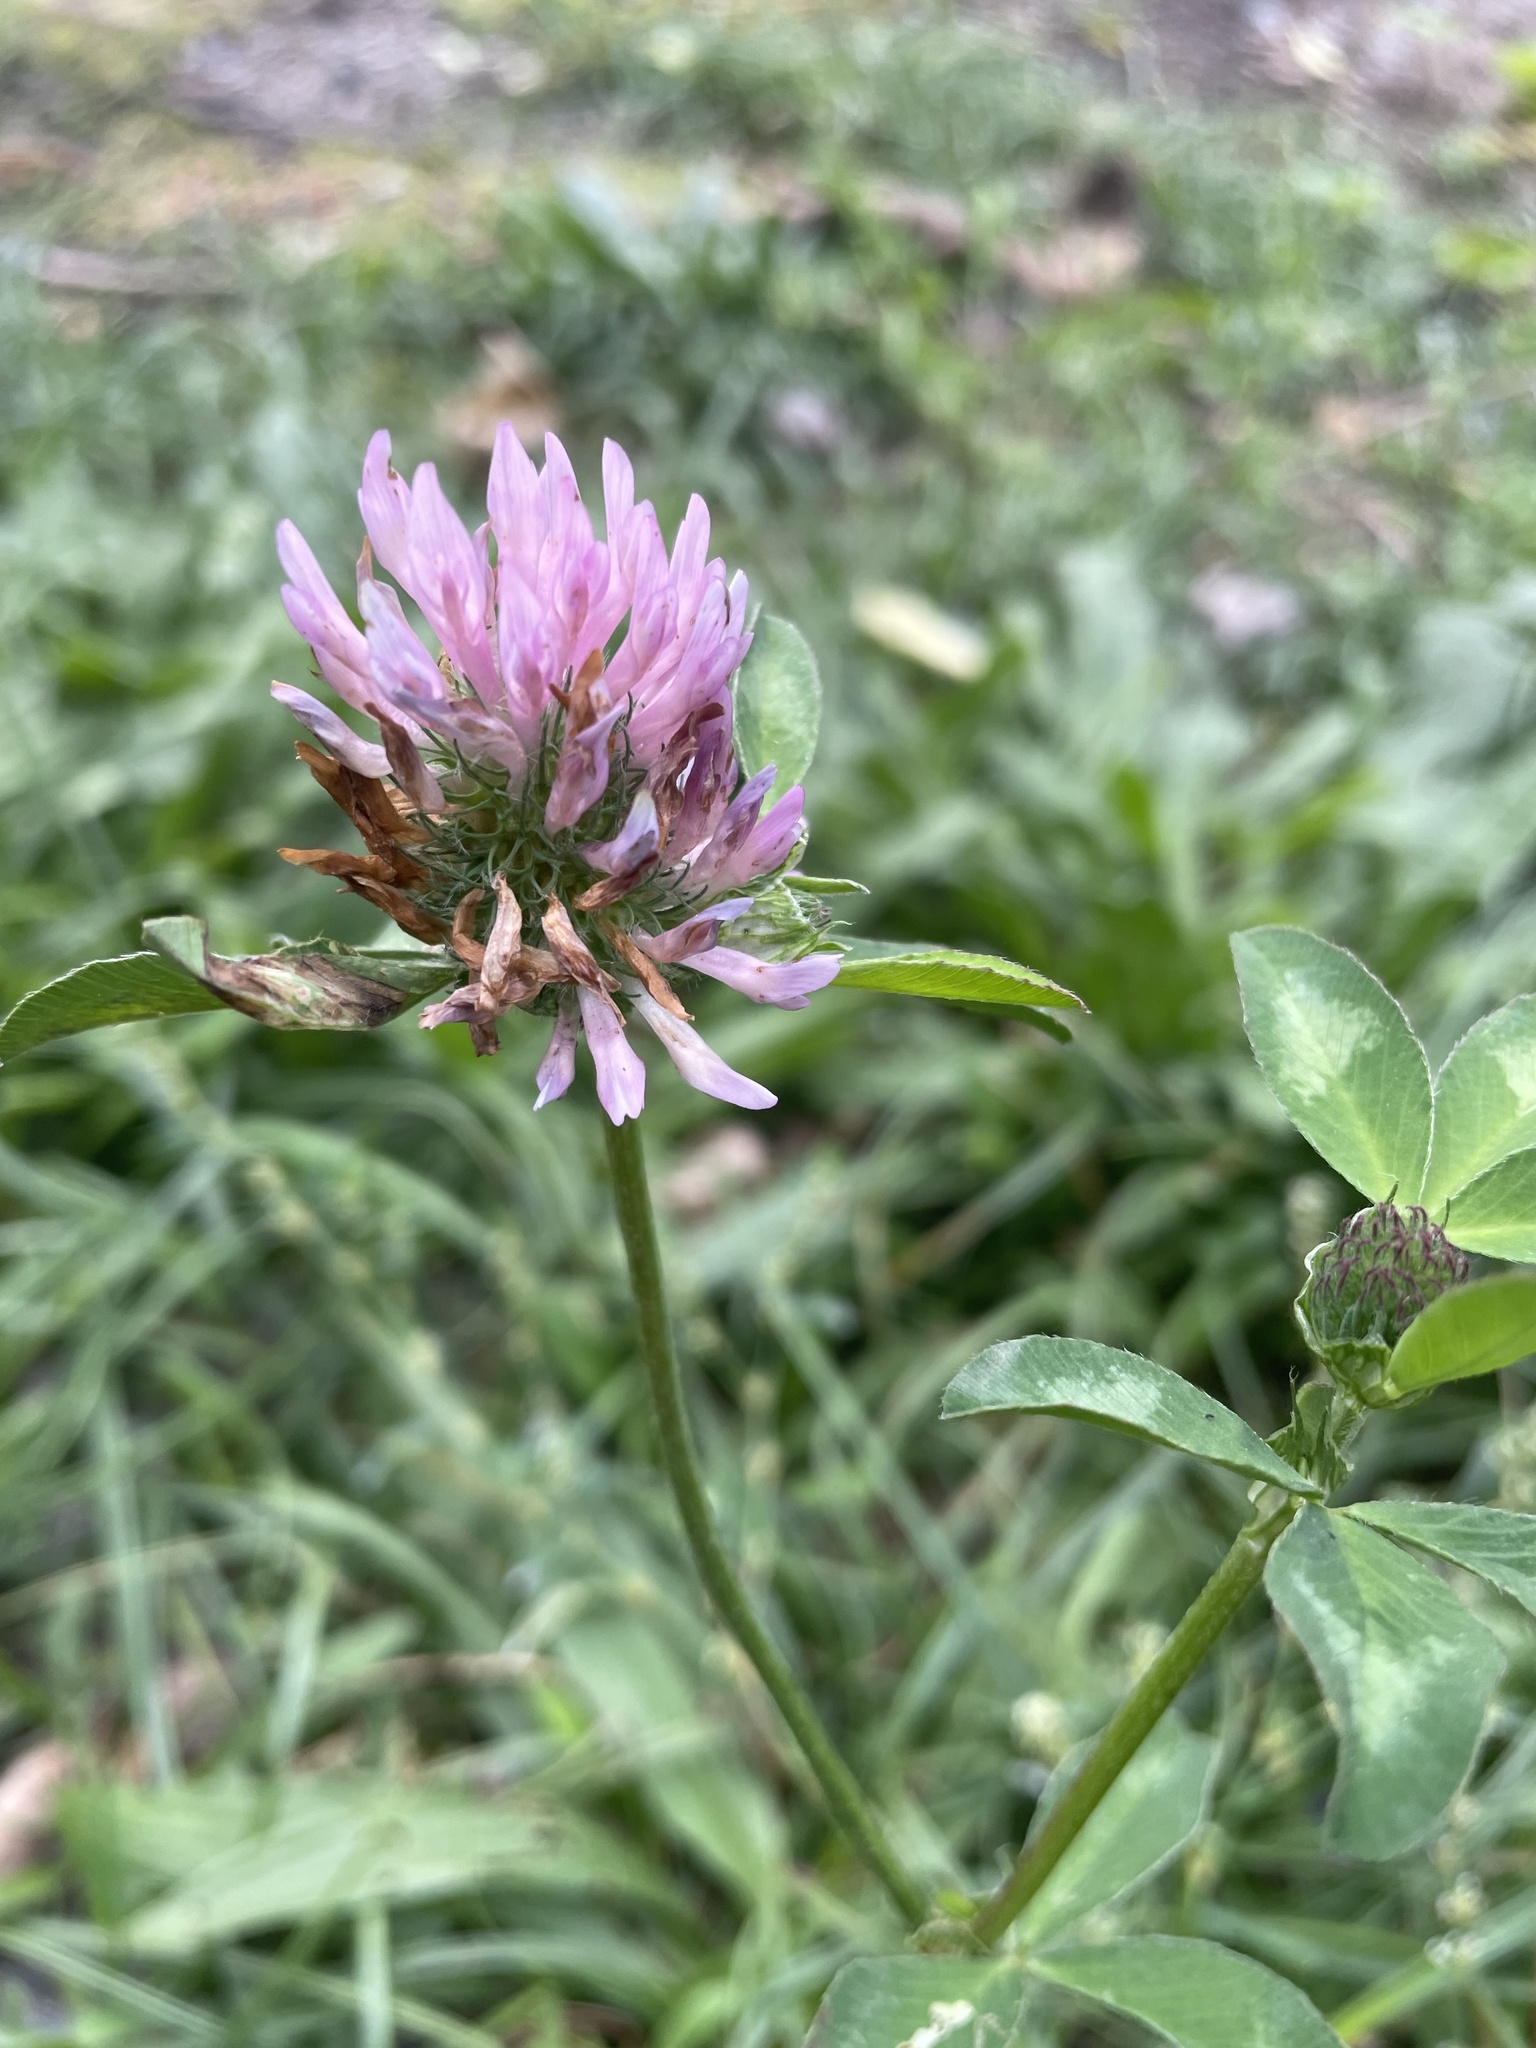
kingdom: Plantae
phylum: Tracheophyta
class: Magnoliopsida
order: Fabales
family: Fabaceae
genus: Trifolium
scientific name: Trifolium pratense
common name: Red clover
